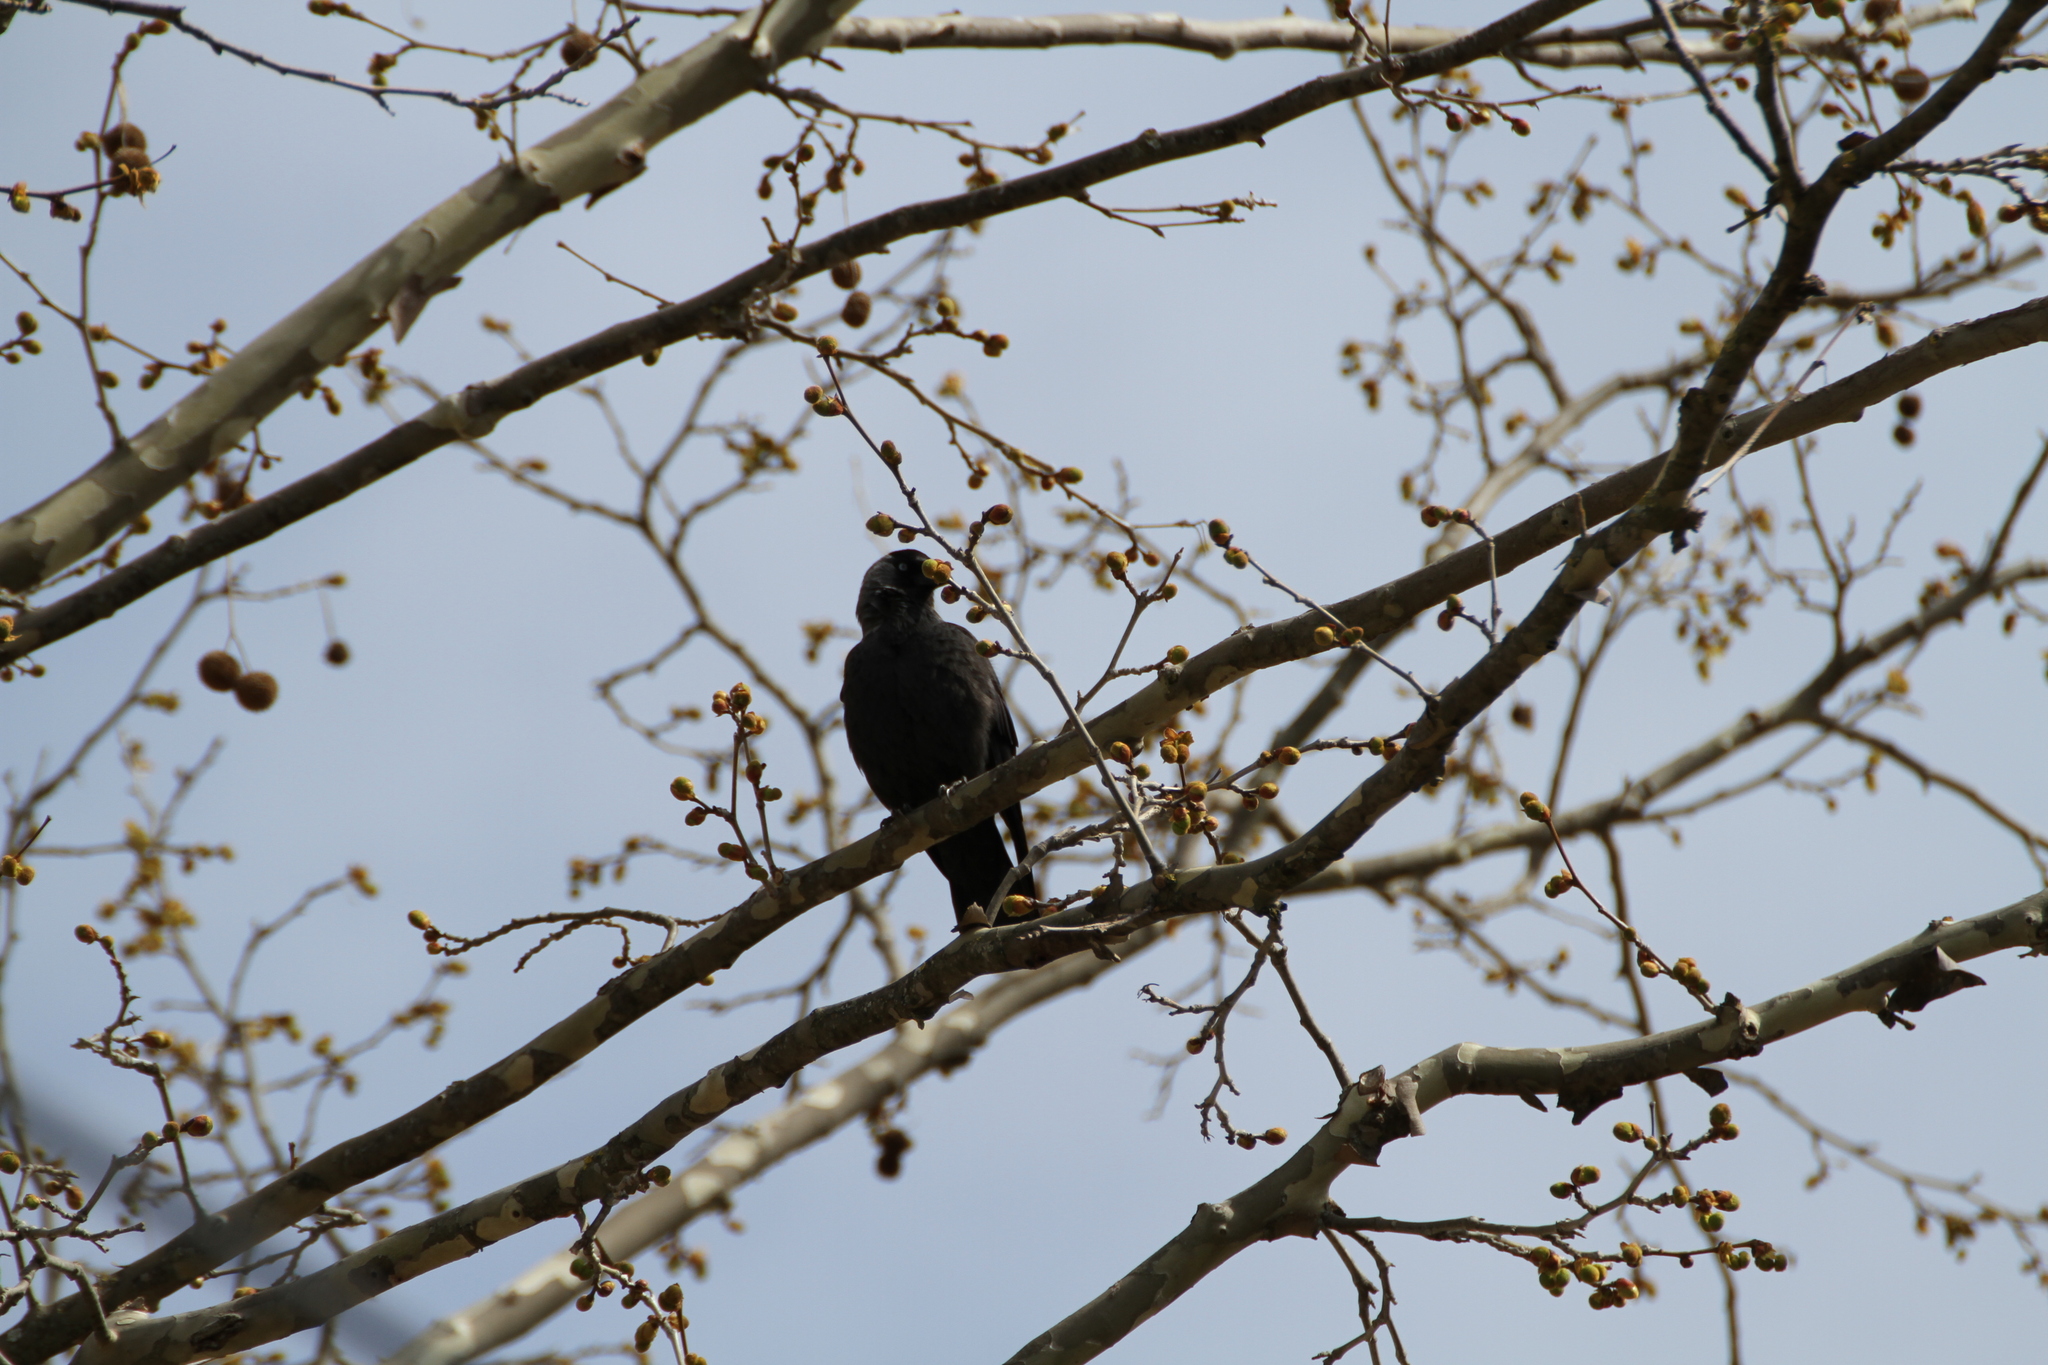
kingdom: Animalia
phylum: Chordata
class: Aves
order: Passeriformes
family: Corvidae
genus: Coloeus
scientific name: Coloeus monedula
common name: Western jackdaw
